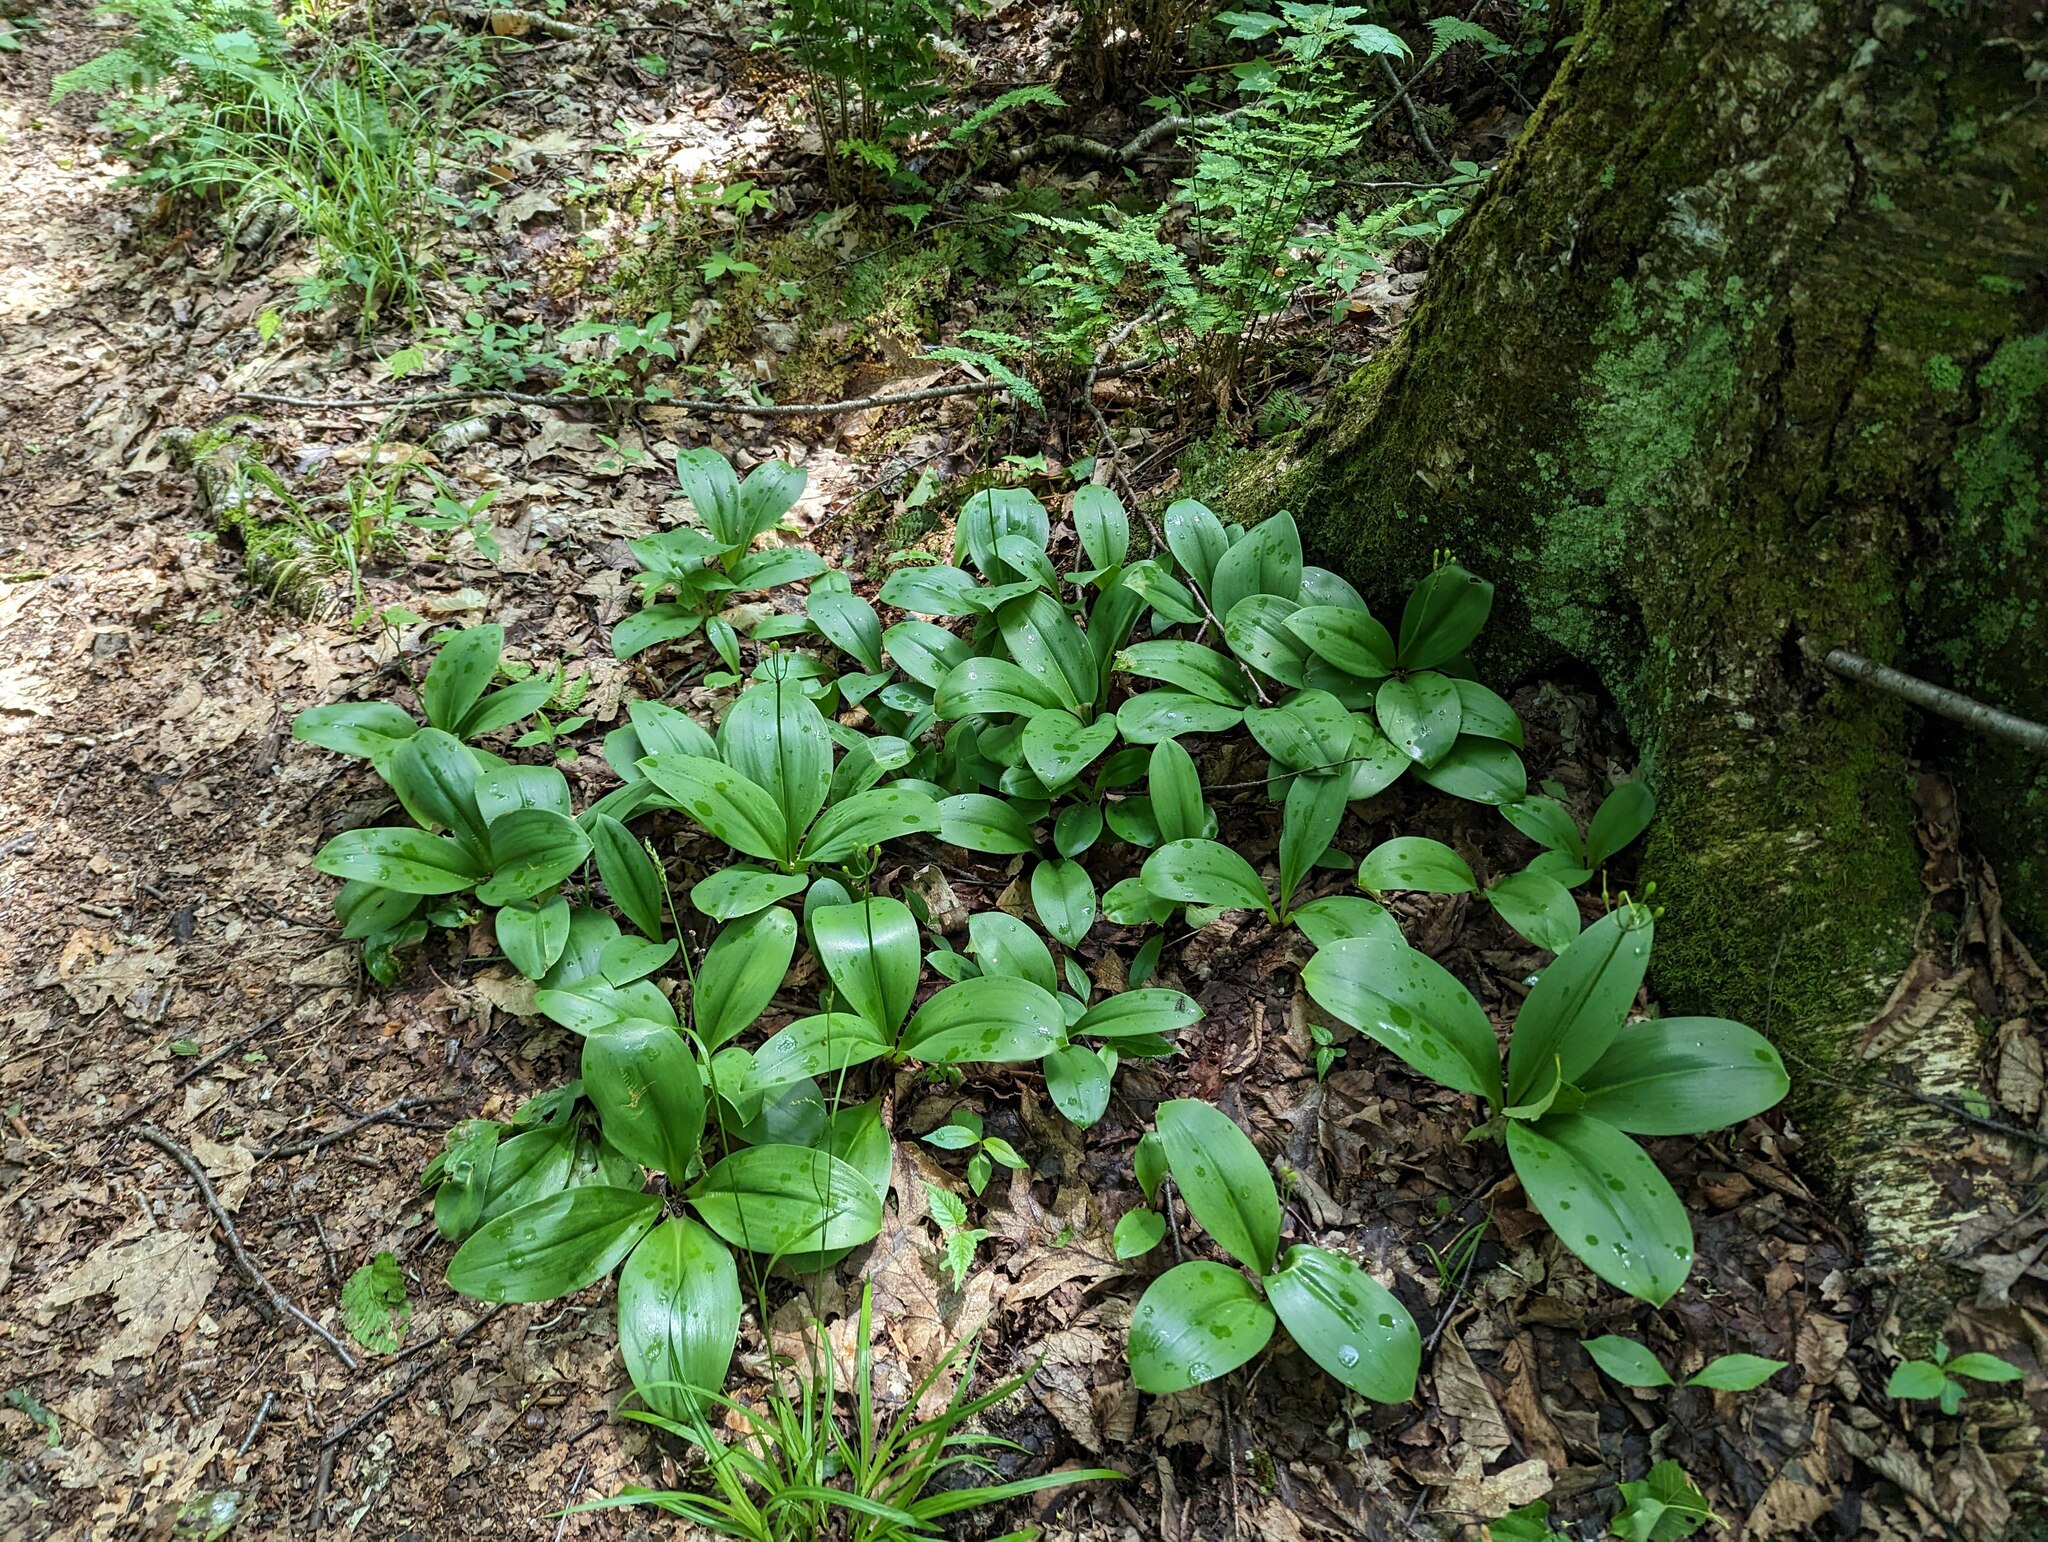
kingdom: Plantae
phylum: Tracheophyta
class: Liliopsida
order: Liliales
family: Liliaceae
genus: Clintonia
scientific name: Clintonia borealis
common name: Yellow clintonia
